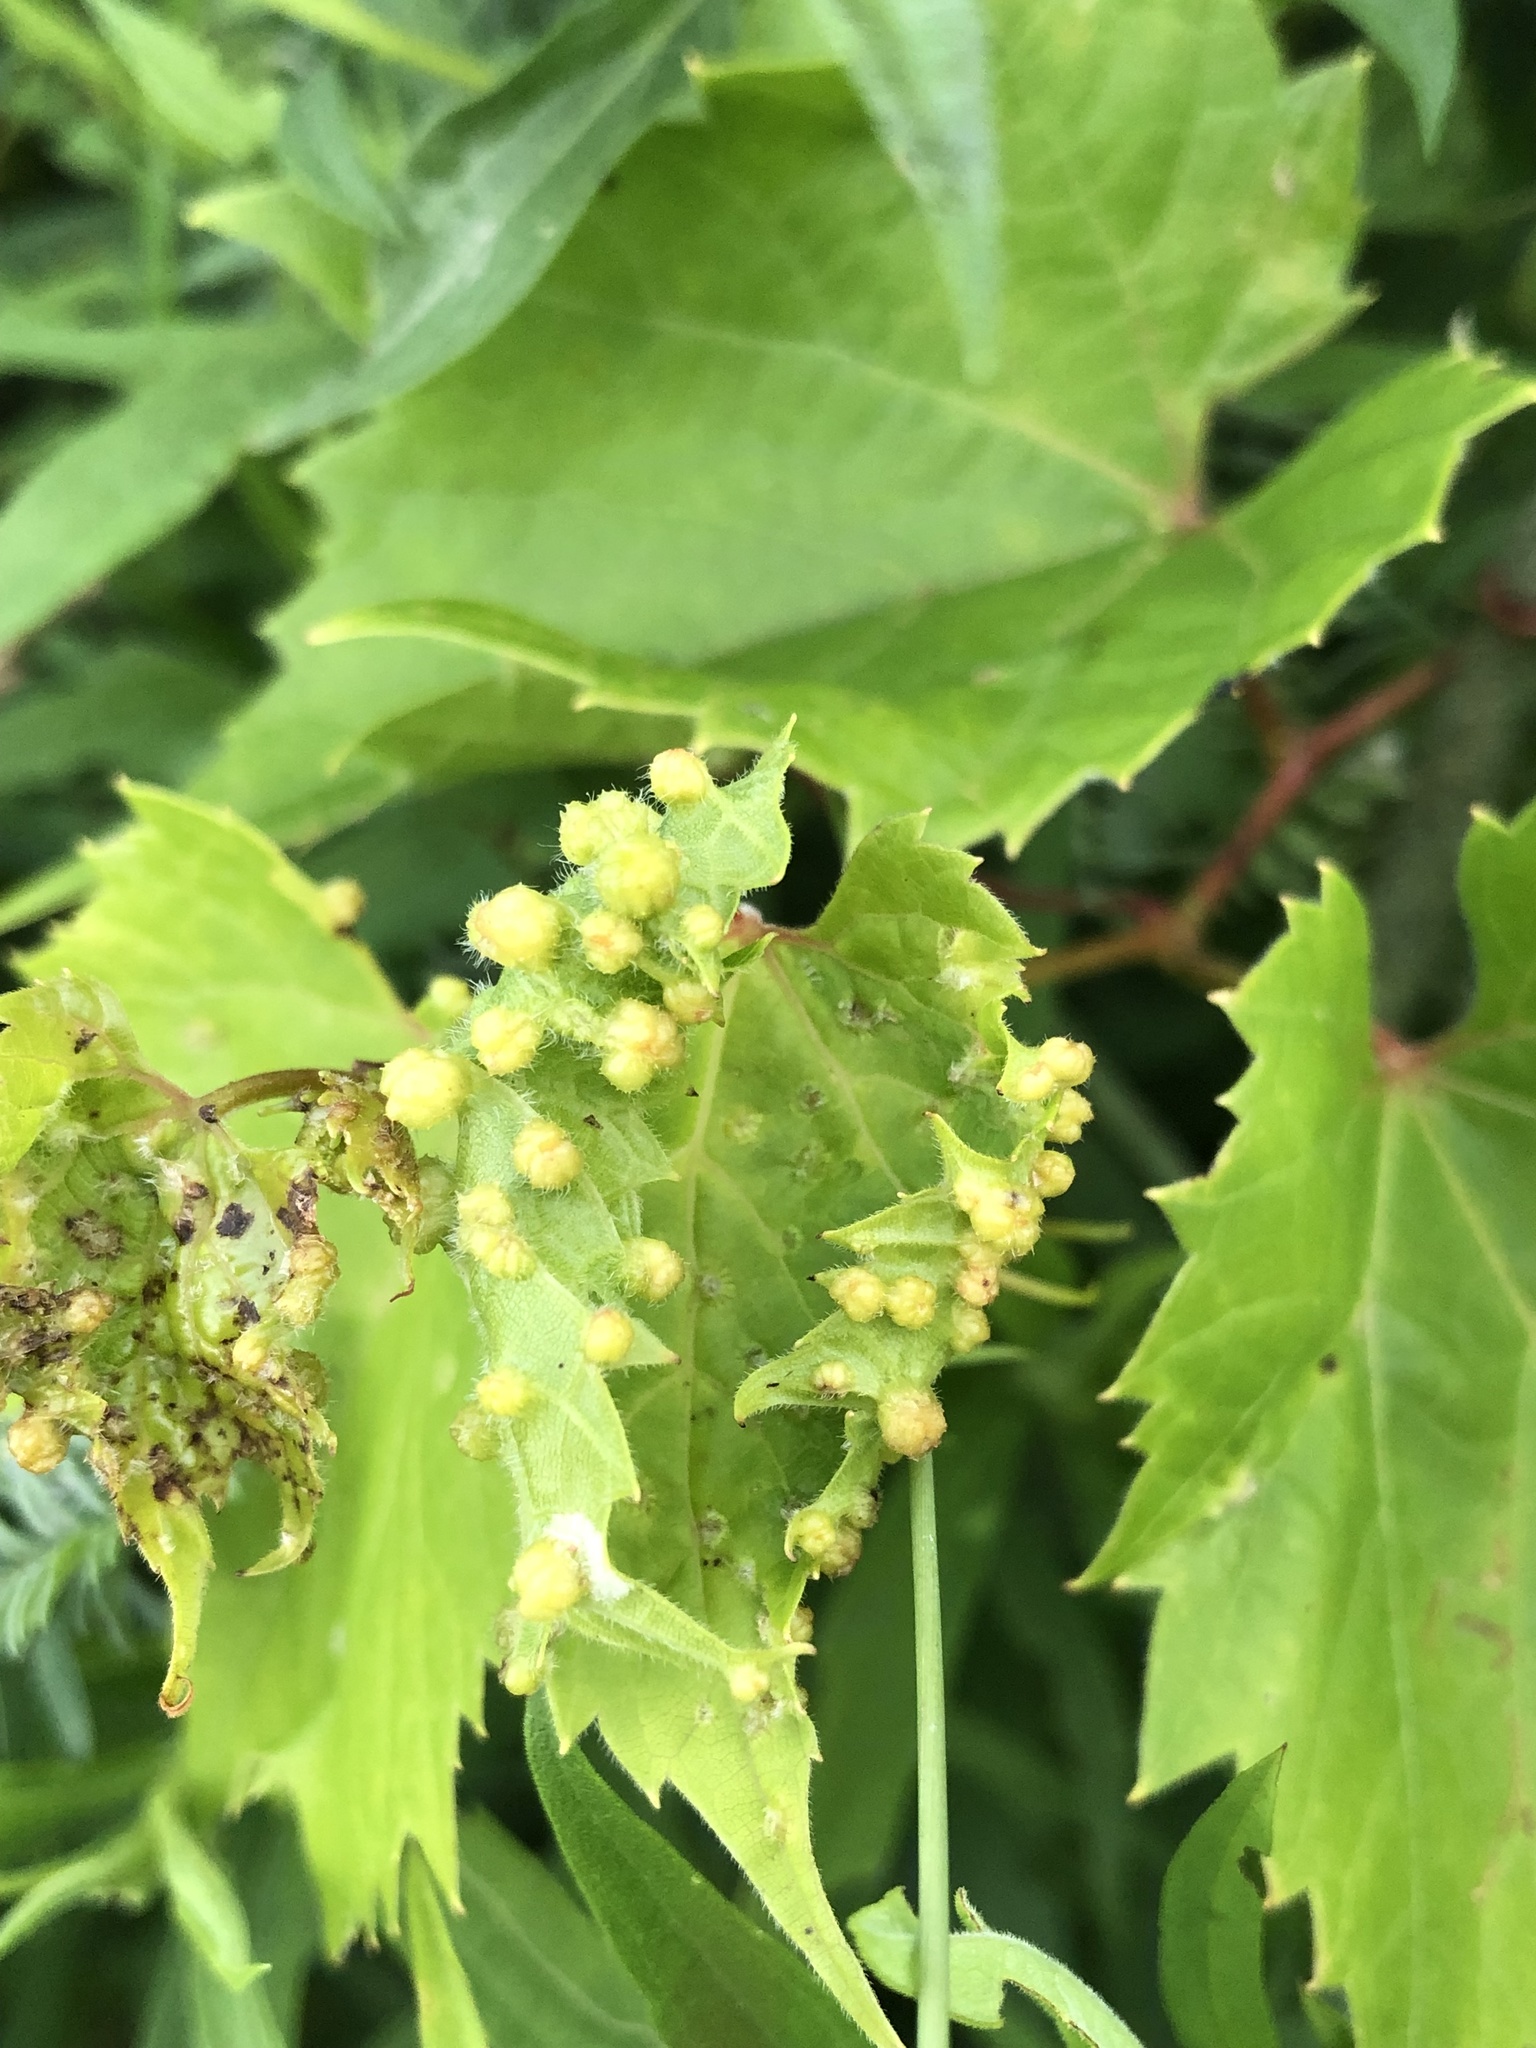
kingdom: Animalia
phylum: Arthropoda
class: Insecta
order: Hemiptera
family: Phylloxeridae
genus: Daktulosphaira
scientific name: Daktulosphaira vitifoliae
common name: Grape phylloxera
